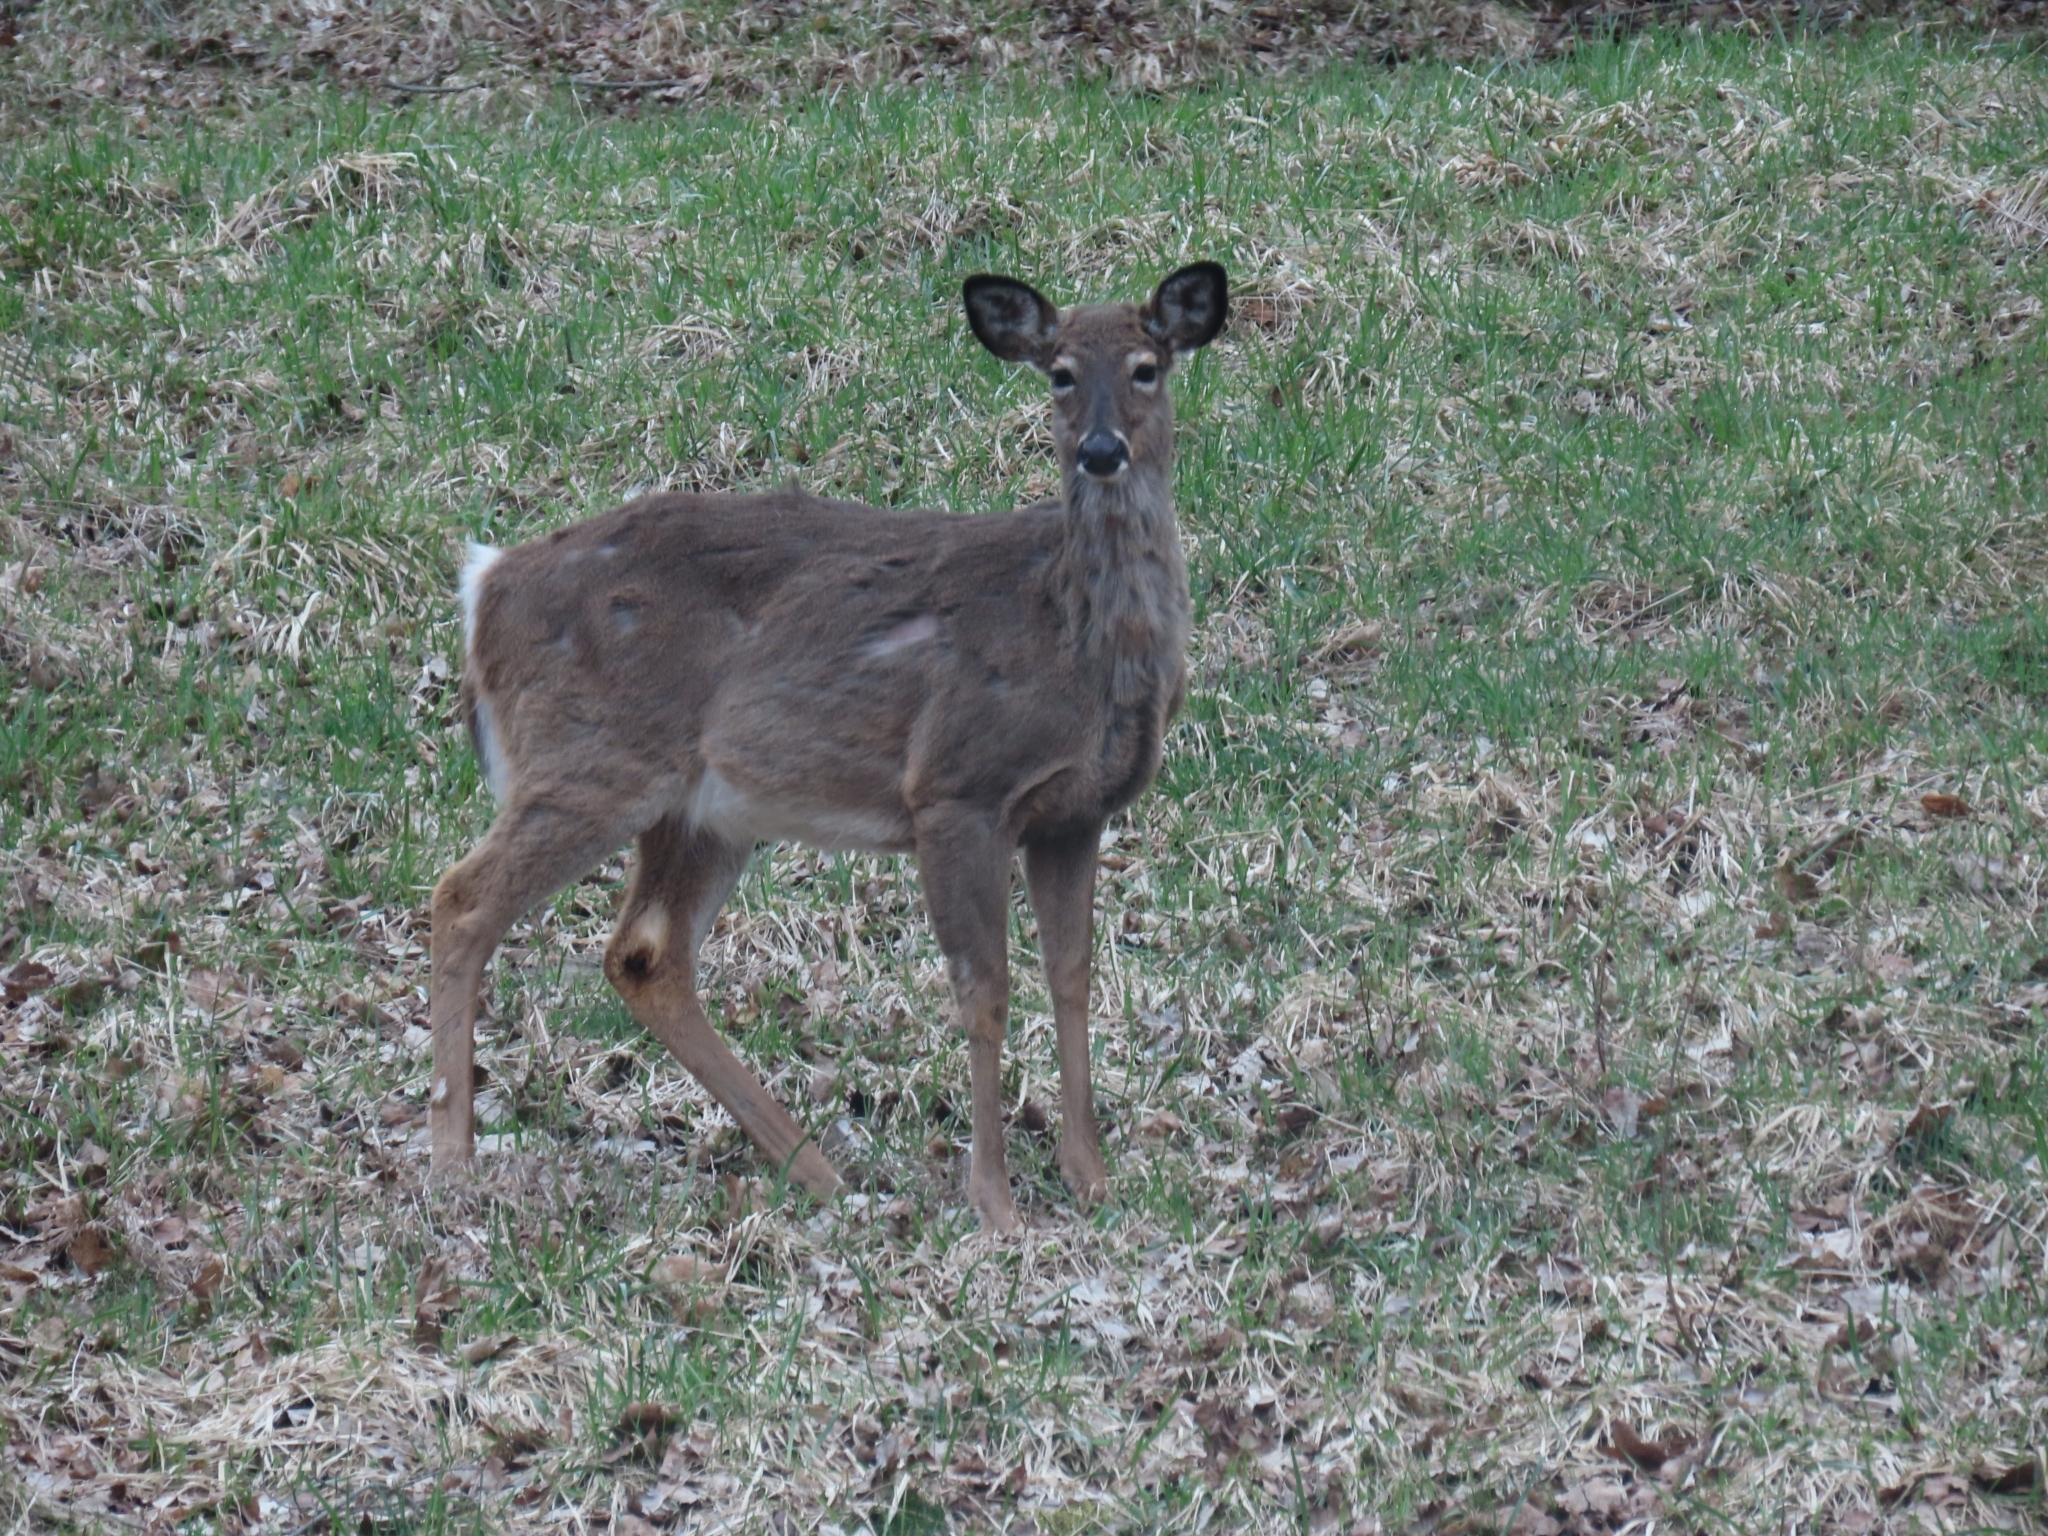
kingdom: Animalia
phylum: Chordata
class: Mammalia
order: Artiodactyla
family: Cervidae
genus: Odocoileus
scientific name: Odocoileus virginianus
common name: White-tailed deer
